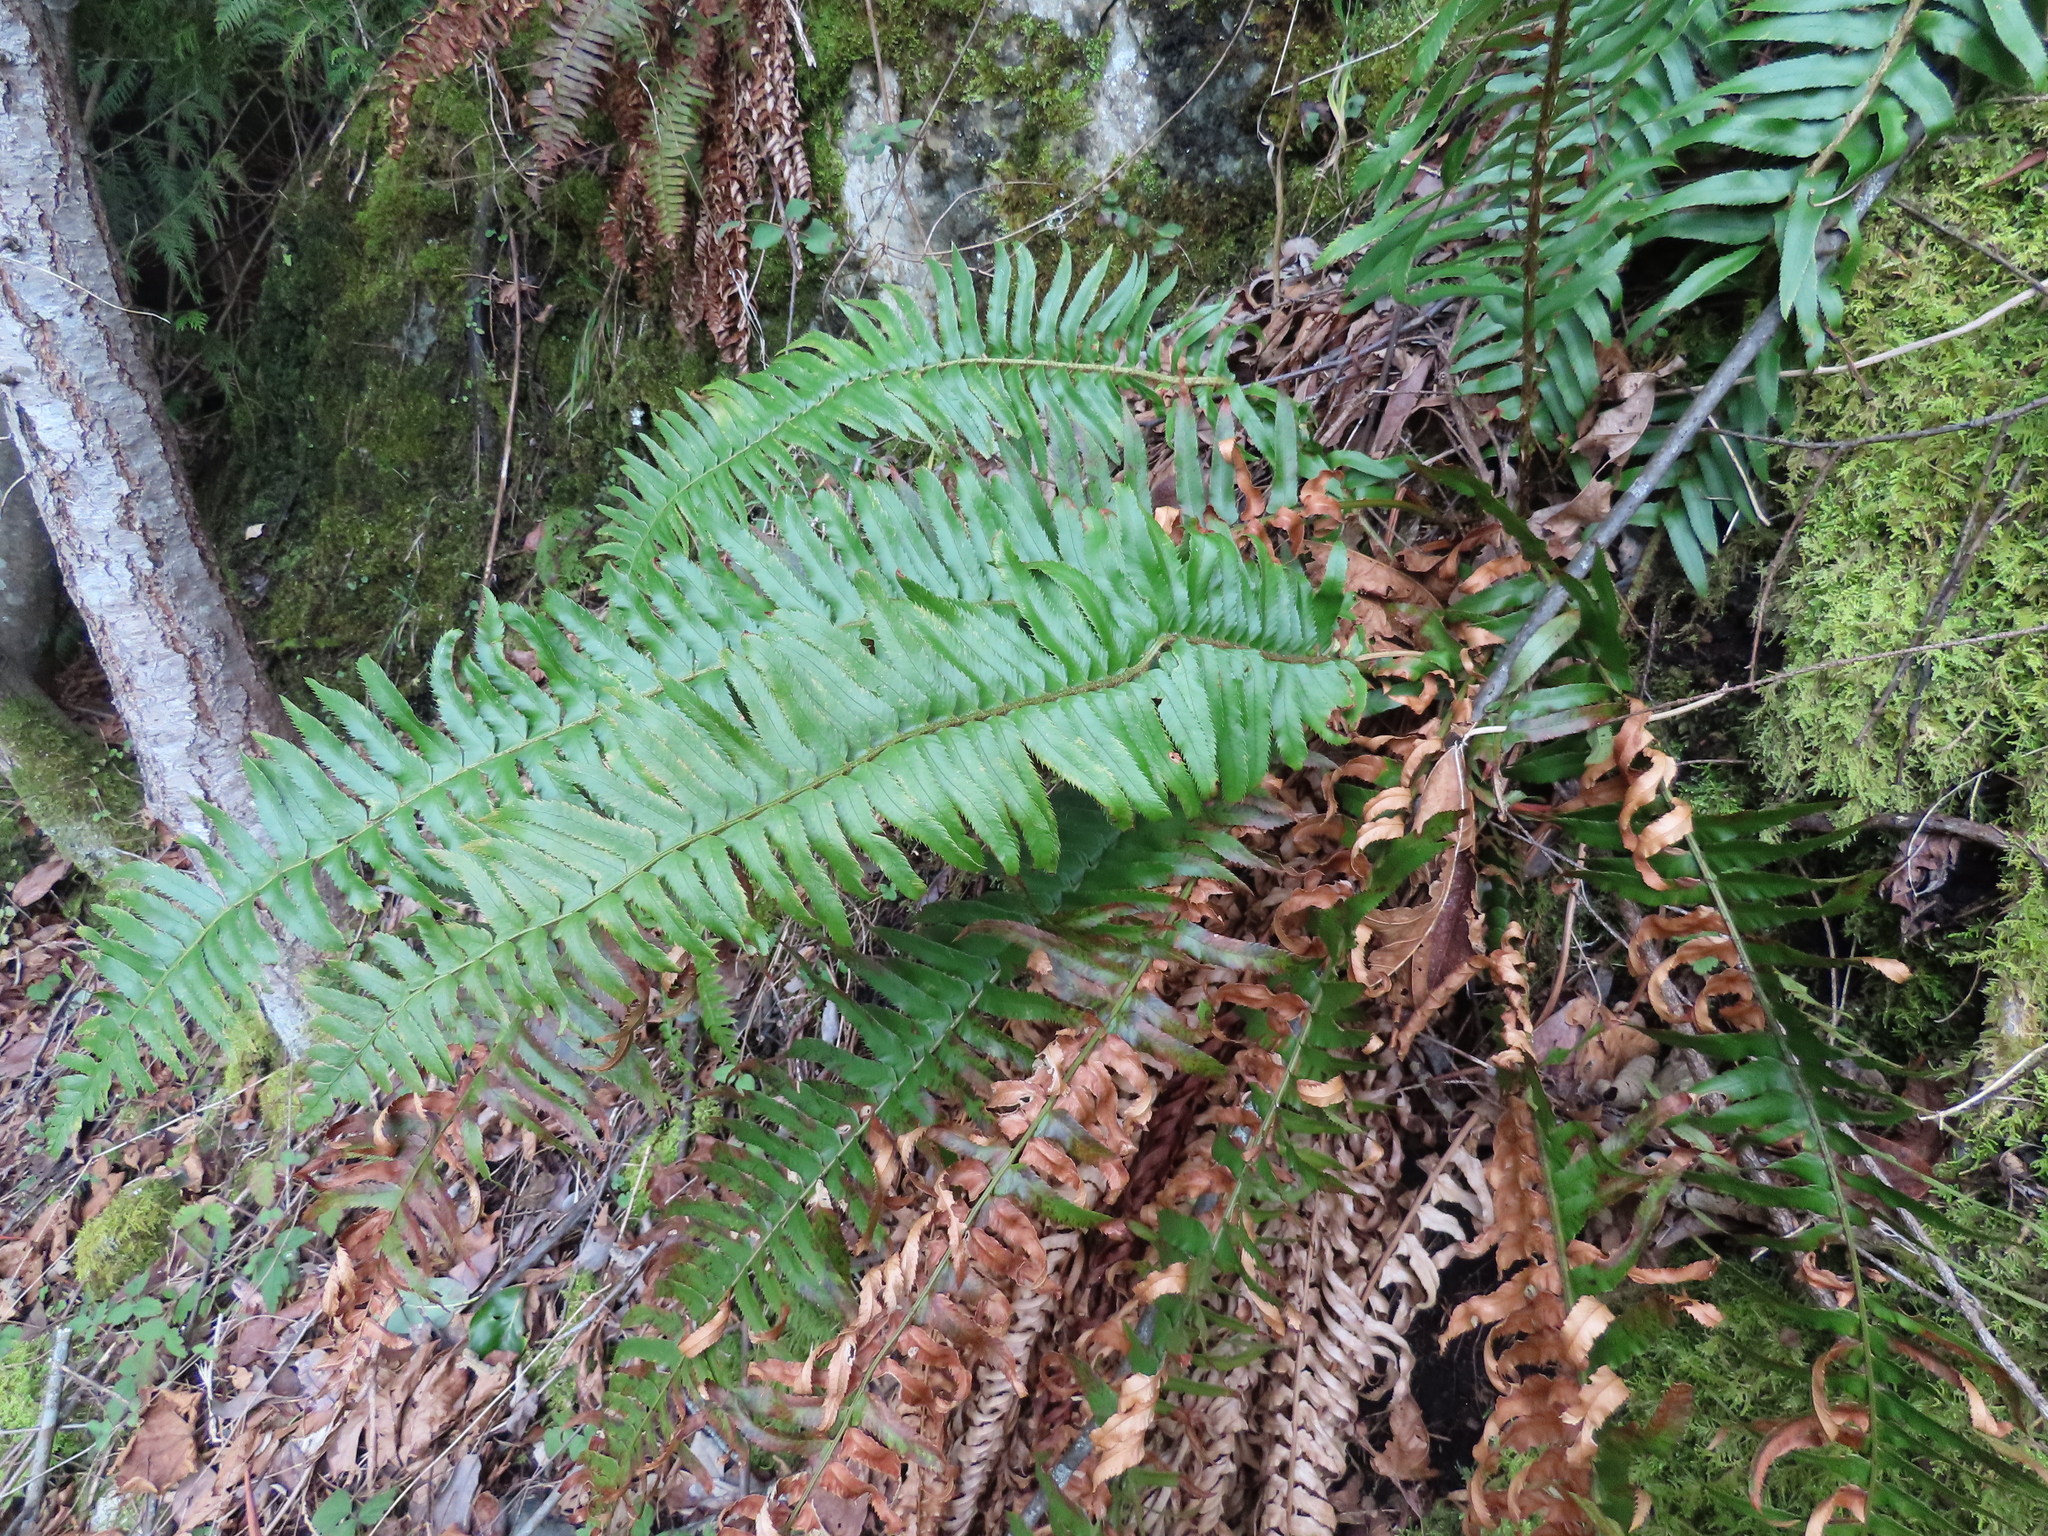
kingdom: Plantae
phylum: Tracheophyta
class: Polypodiopsida
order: Polypodiales
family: Dryopteridaceae
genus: Polystichum
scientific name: Polystichum munitum
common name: Western sword-fern
